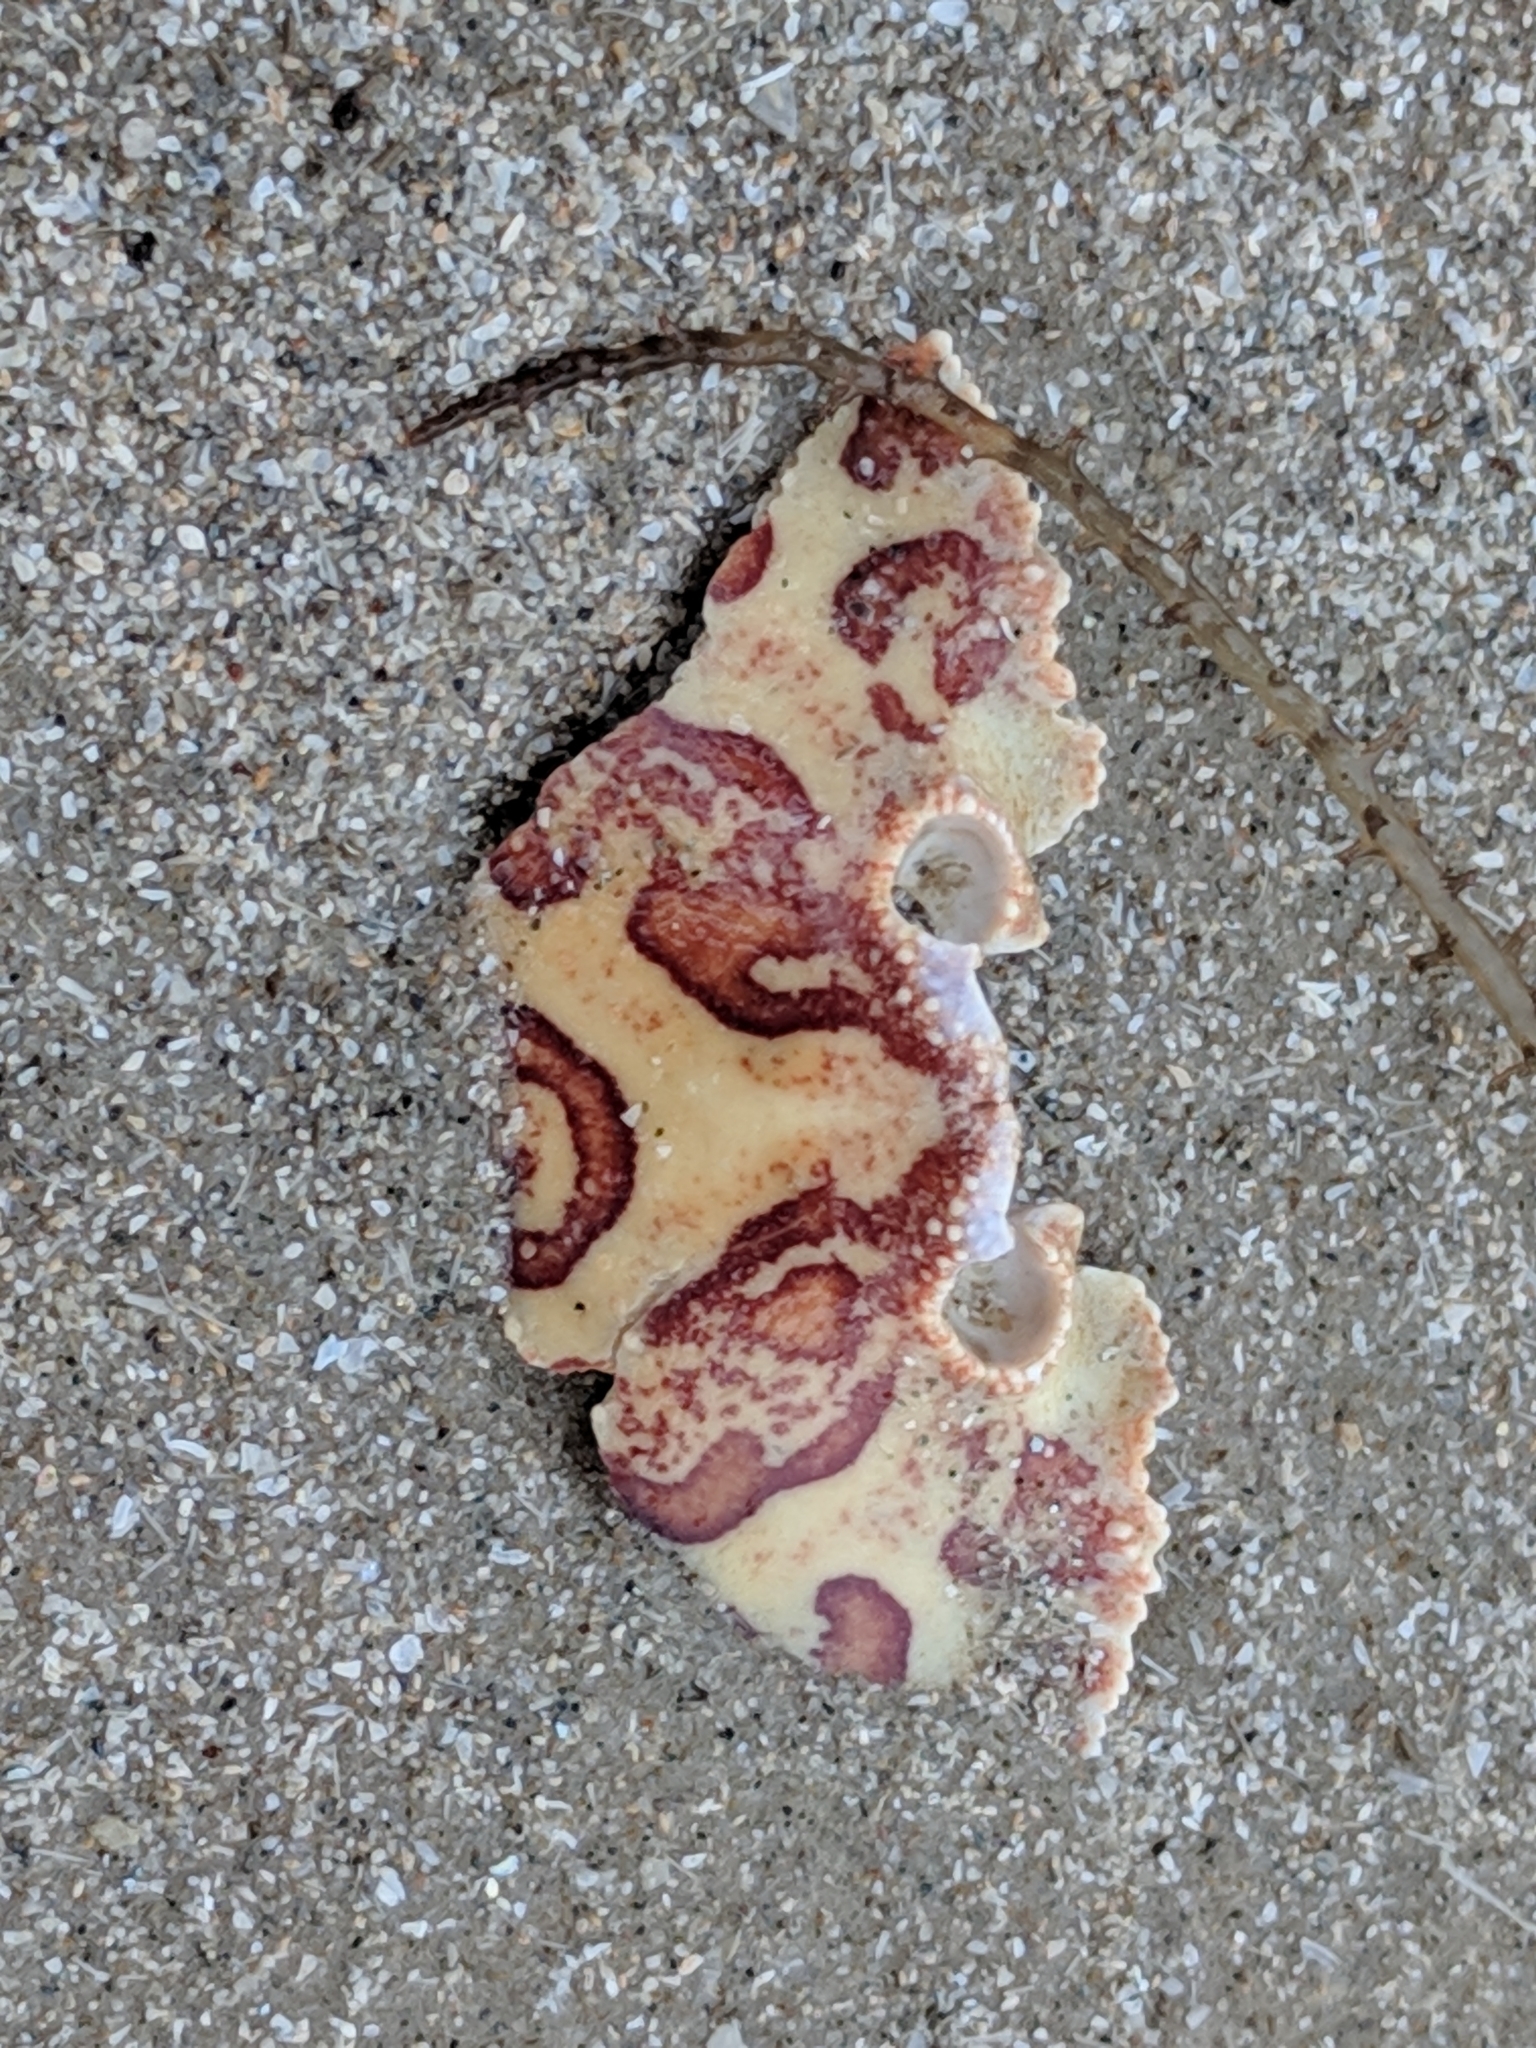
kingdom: Animalia
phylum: Arthropoda
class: Malacostraca
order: Decapoda
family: Aethridae
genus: Hepatus
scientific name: Hepatus epheliticus
